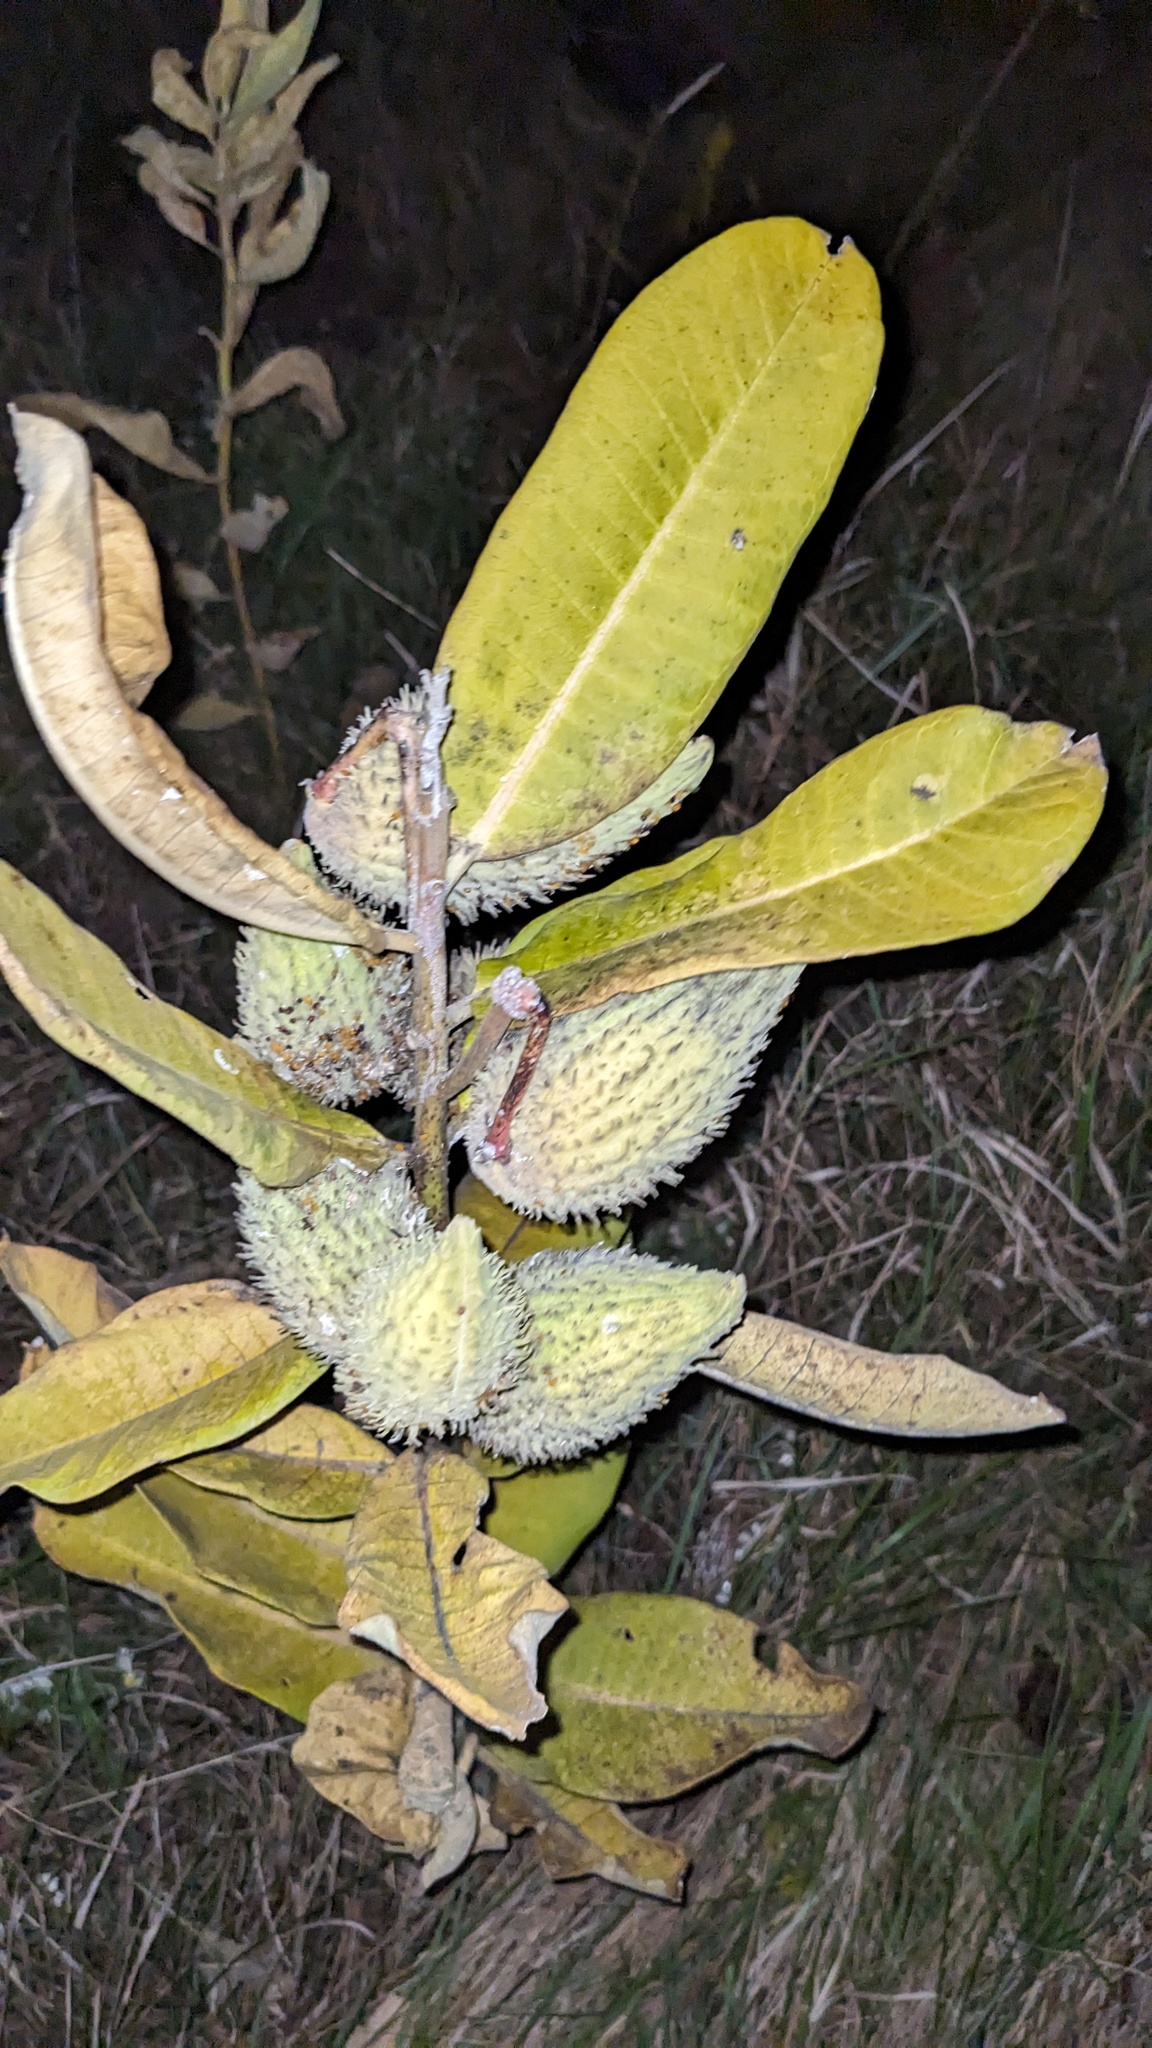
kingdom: Plantae
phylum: Tracheophyta
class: Magnoliopsida
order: Gentianales
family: Apocynaceae
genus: Asclepias
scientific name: Asclepias syriaca
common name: Common milkweed
